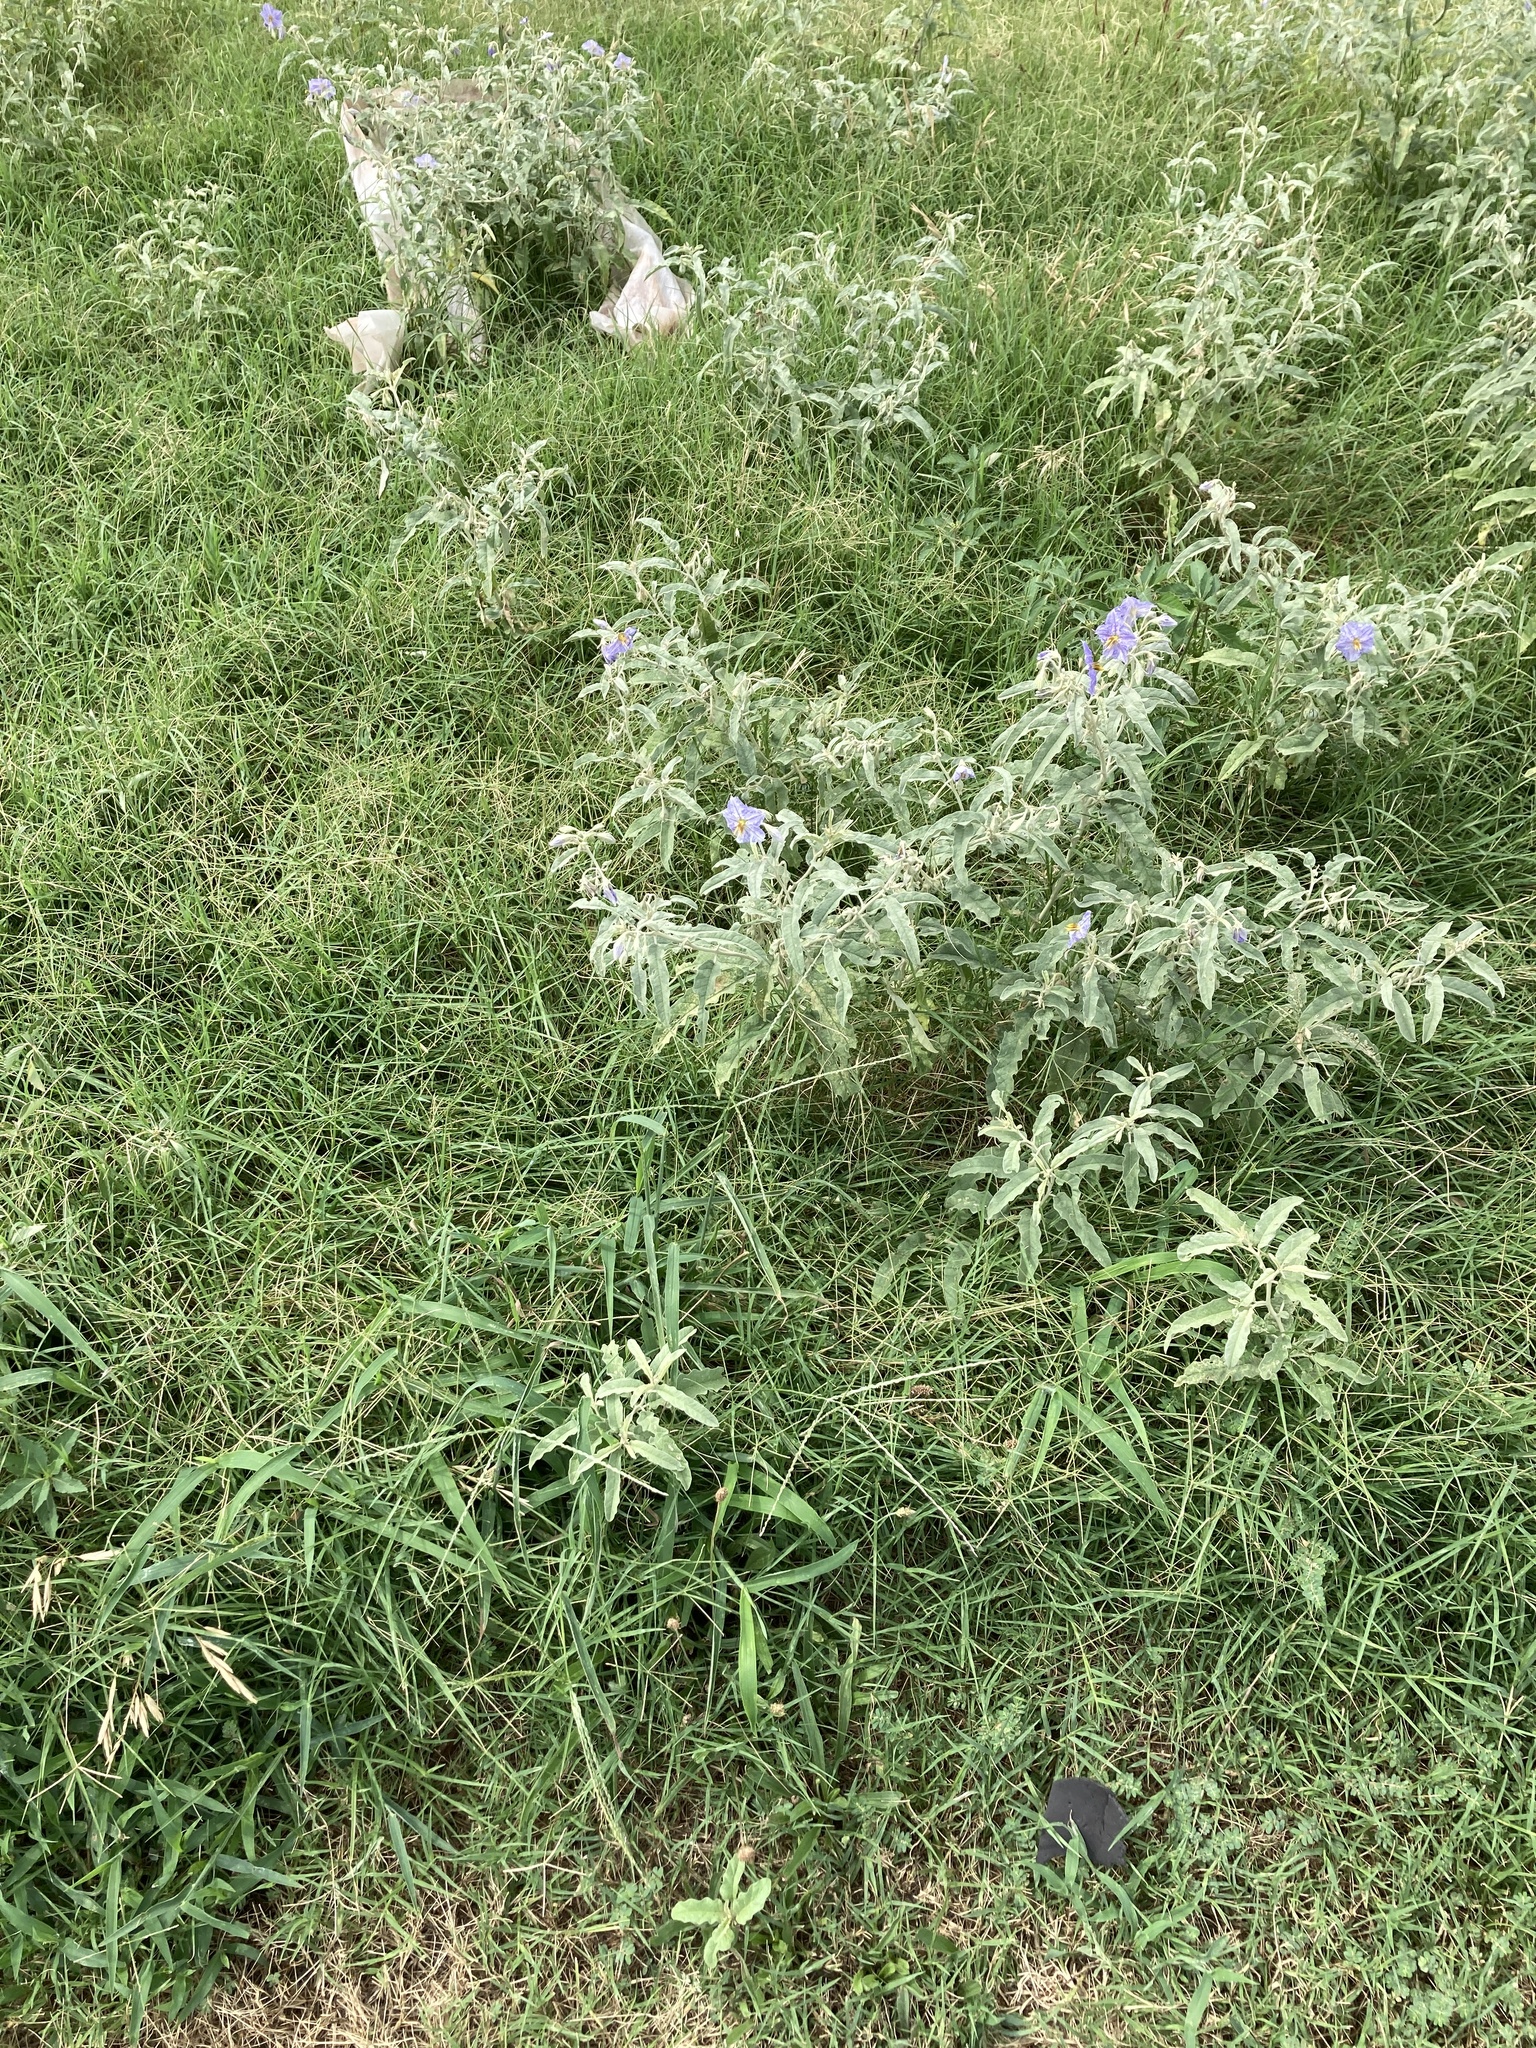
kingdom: Plantae
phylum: Tracheophyta
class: Magnoliopsida
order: Solanales
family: Solanaceae
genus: Solanum
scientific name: Solanum elaeagnifolium
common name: Silverleaf nightshade
